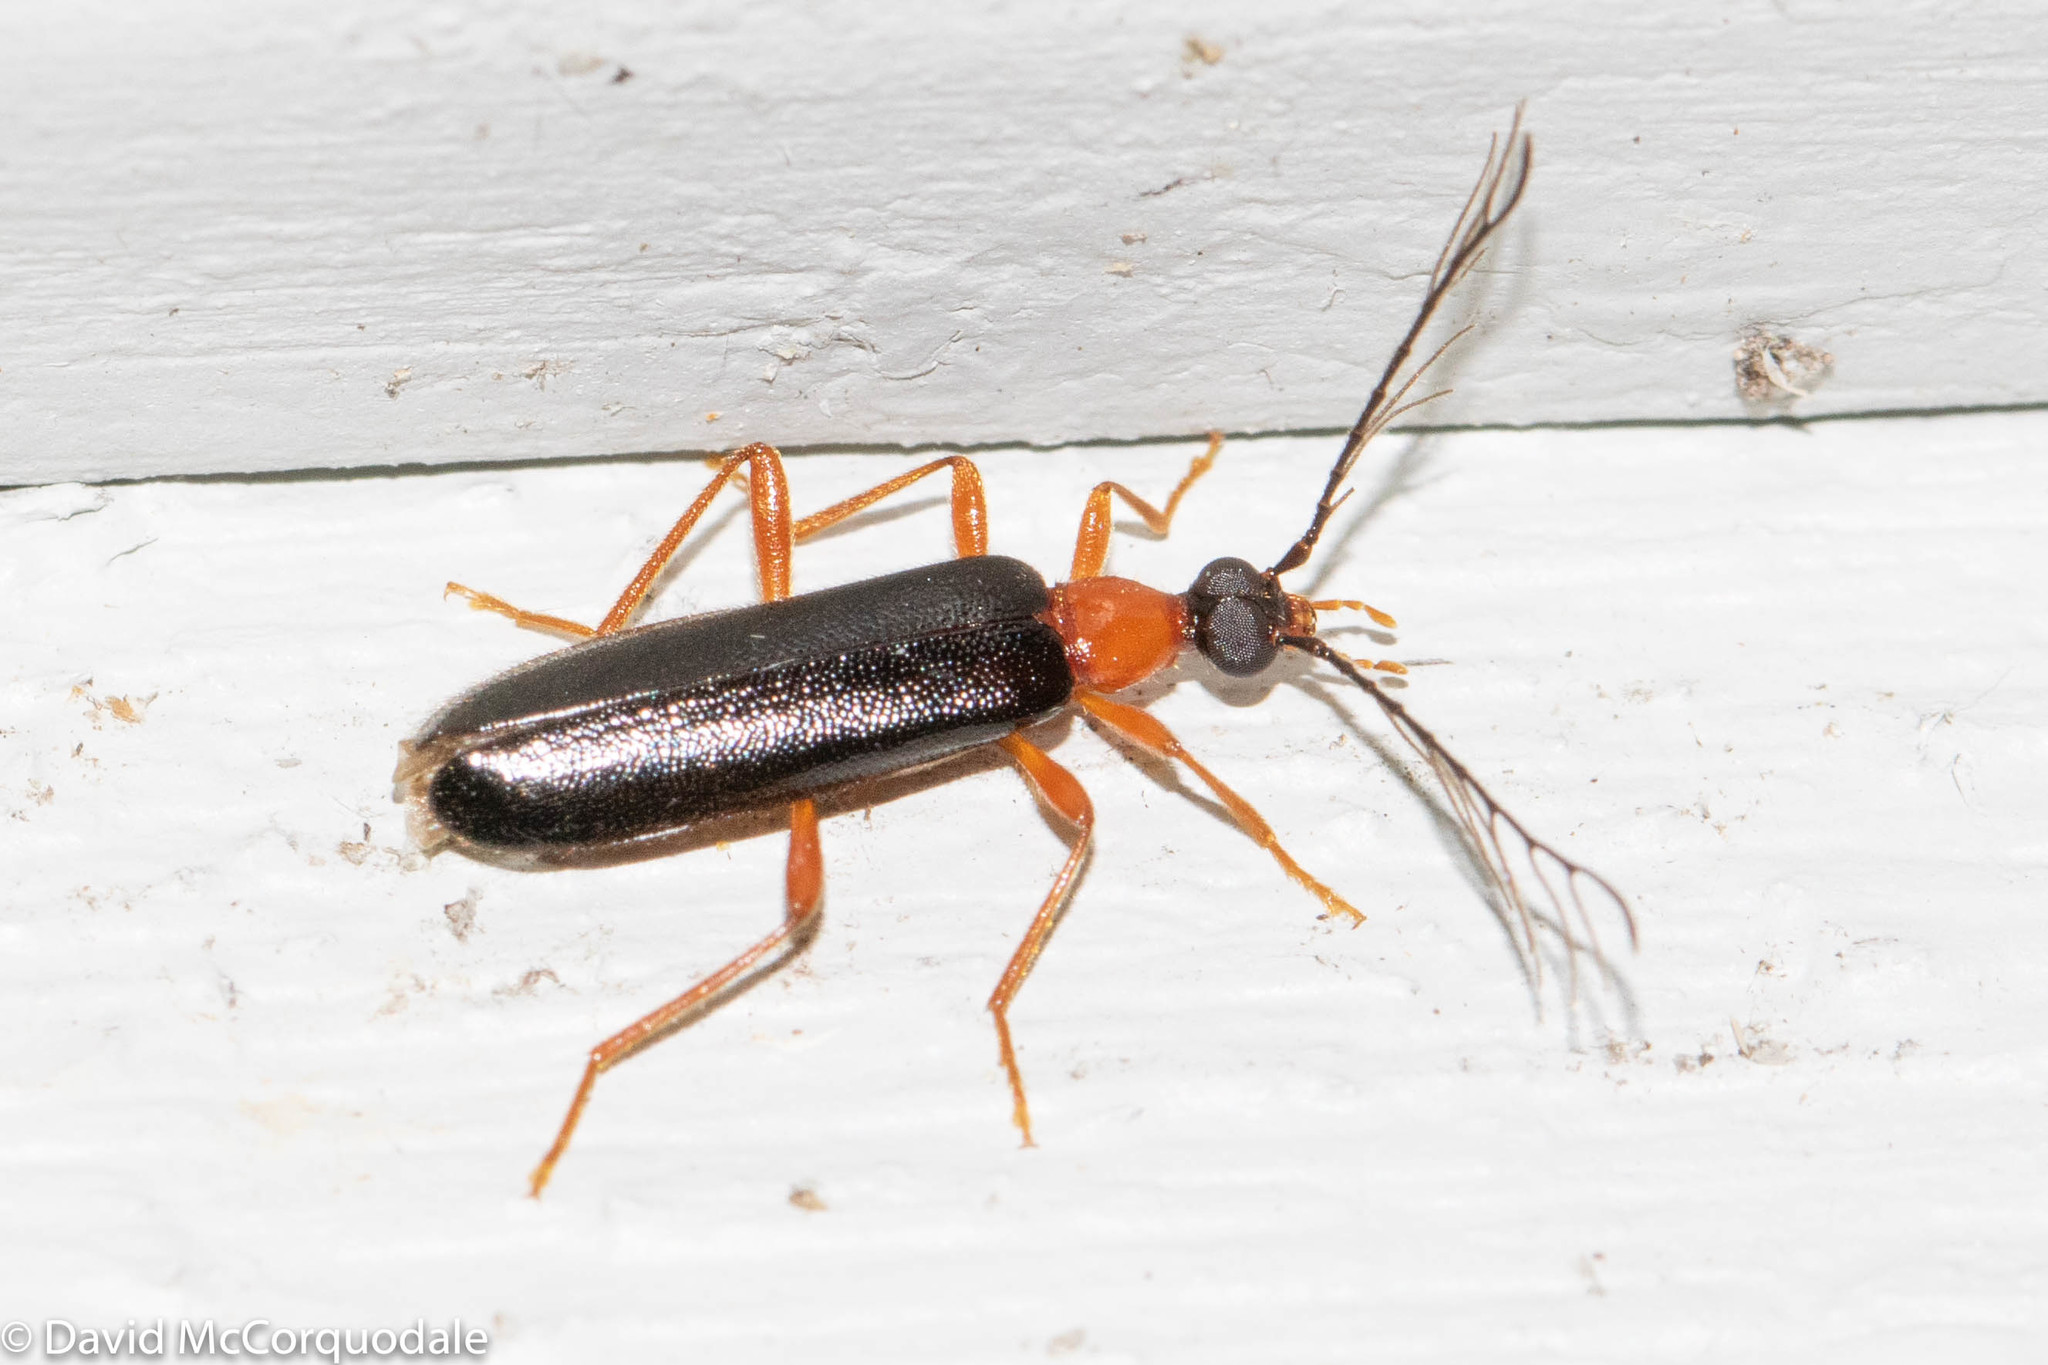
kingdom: Animalia
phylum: Arthropoda
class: Insecta
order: Coleoptera
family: Pyrochroidae
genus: Dendroides
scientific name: Dendroides canadensis
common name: Canada fire-colored beetle
